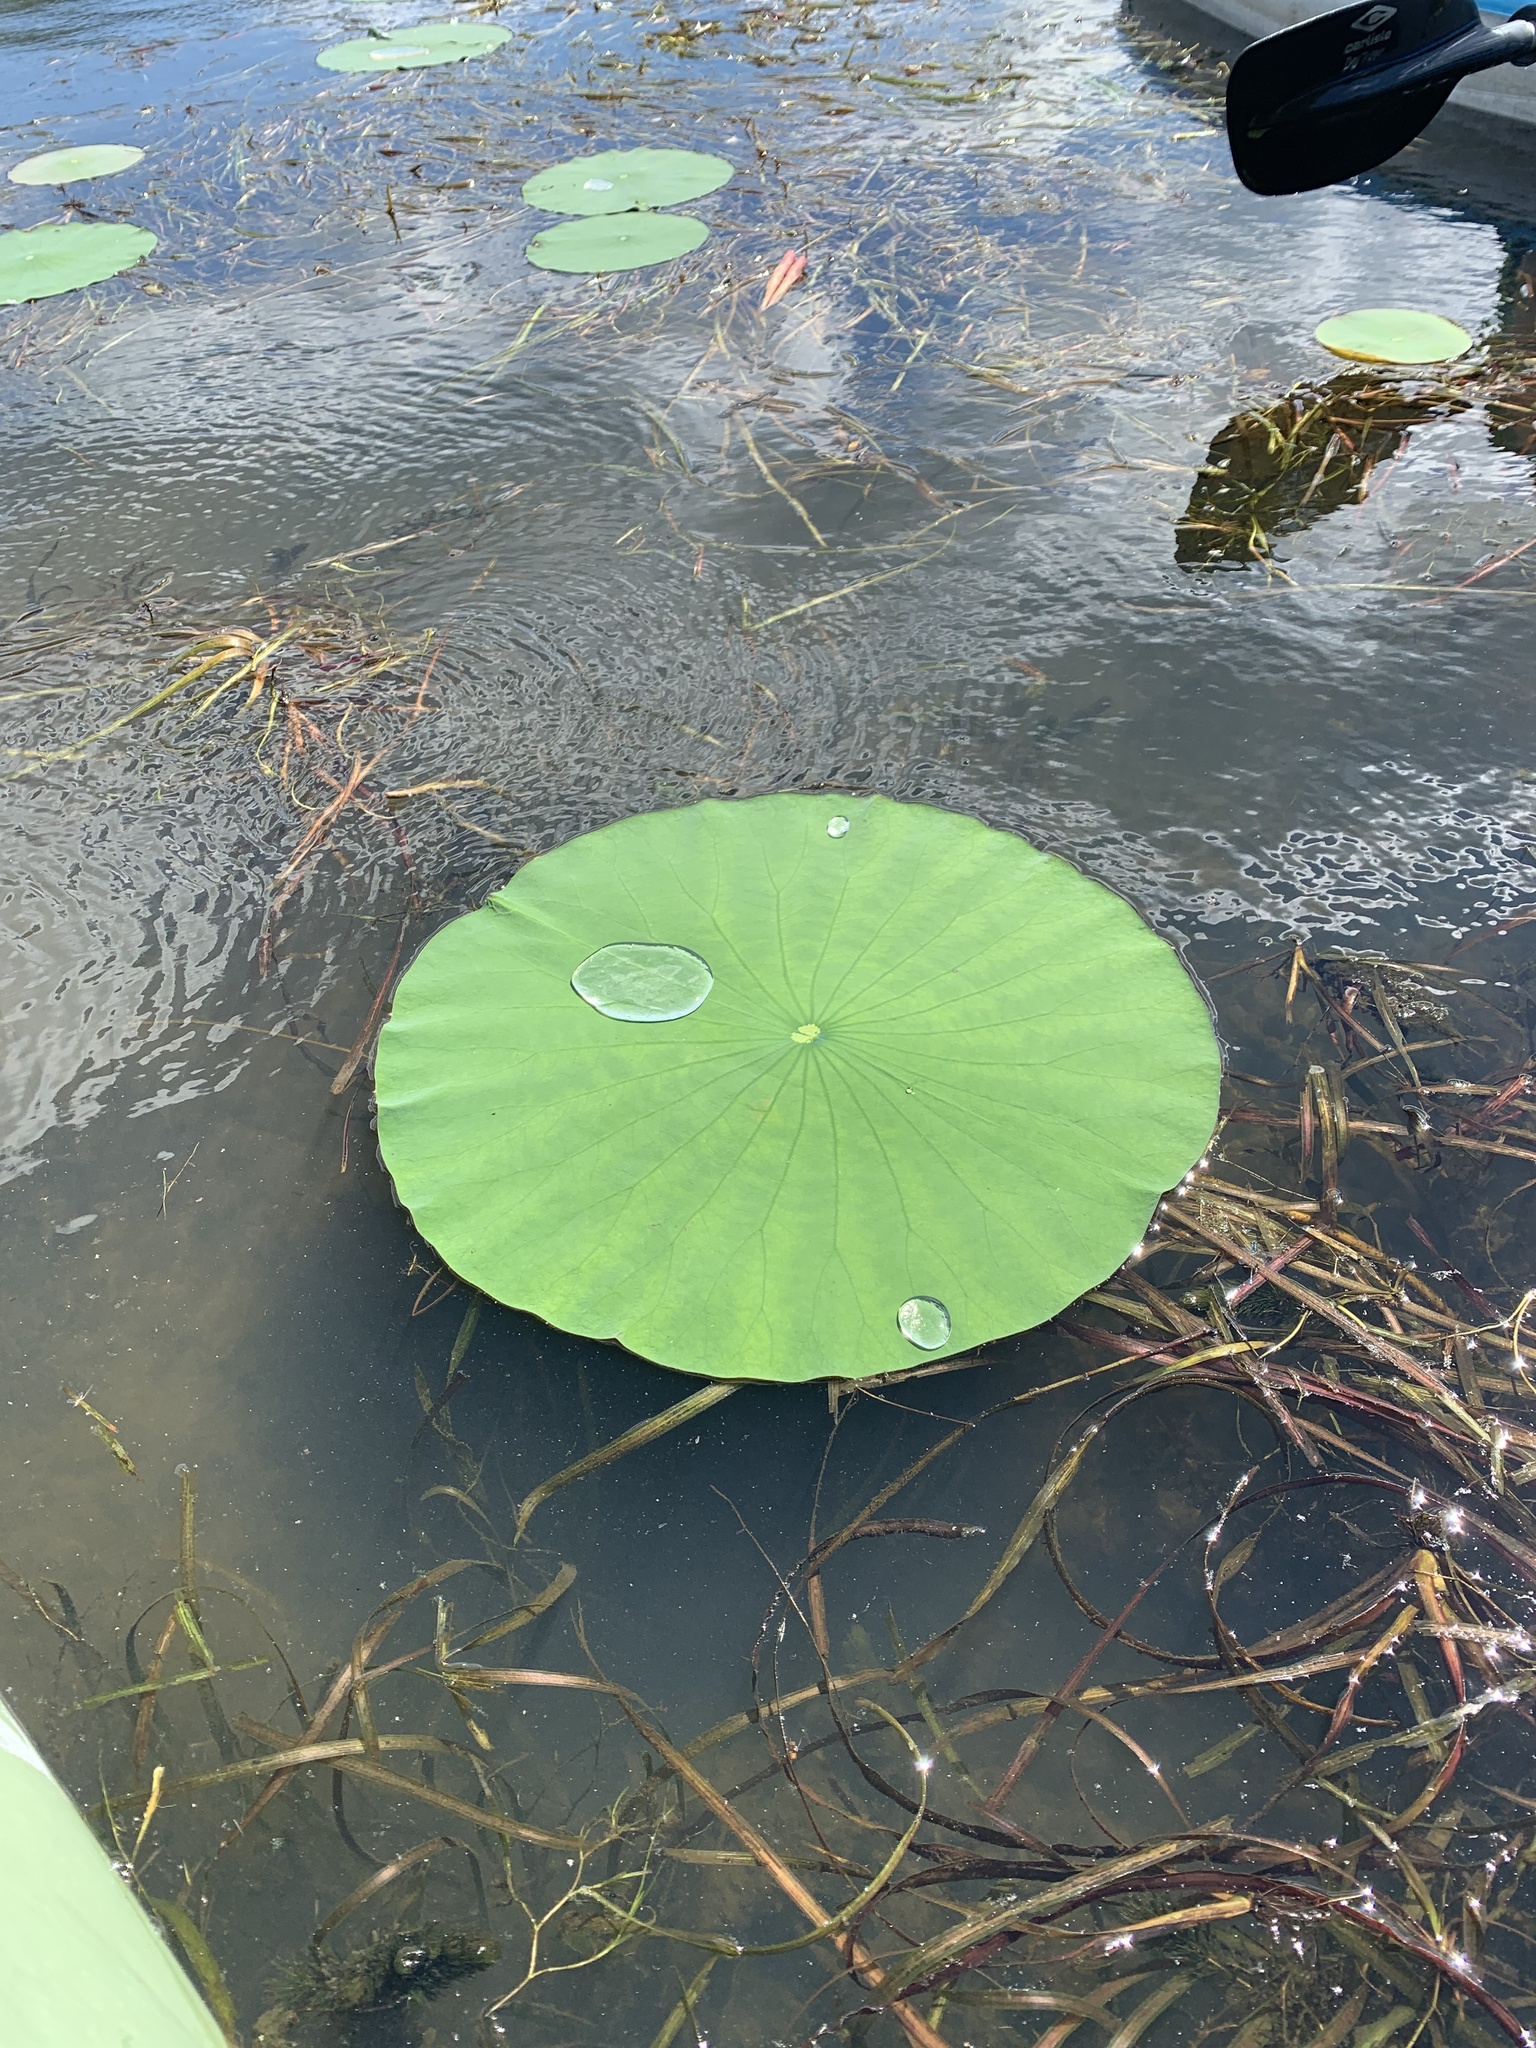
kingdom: Plantae
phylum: Tracheophyta
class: Magnoliopsida
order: Proteales
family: Nelumbonaceae
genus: Nelumbo
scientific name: Nelumbo lutea
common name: American lotus
